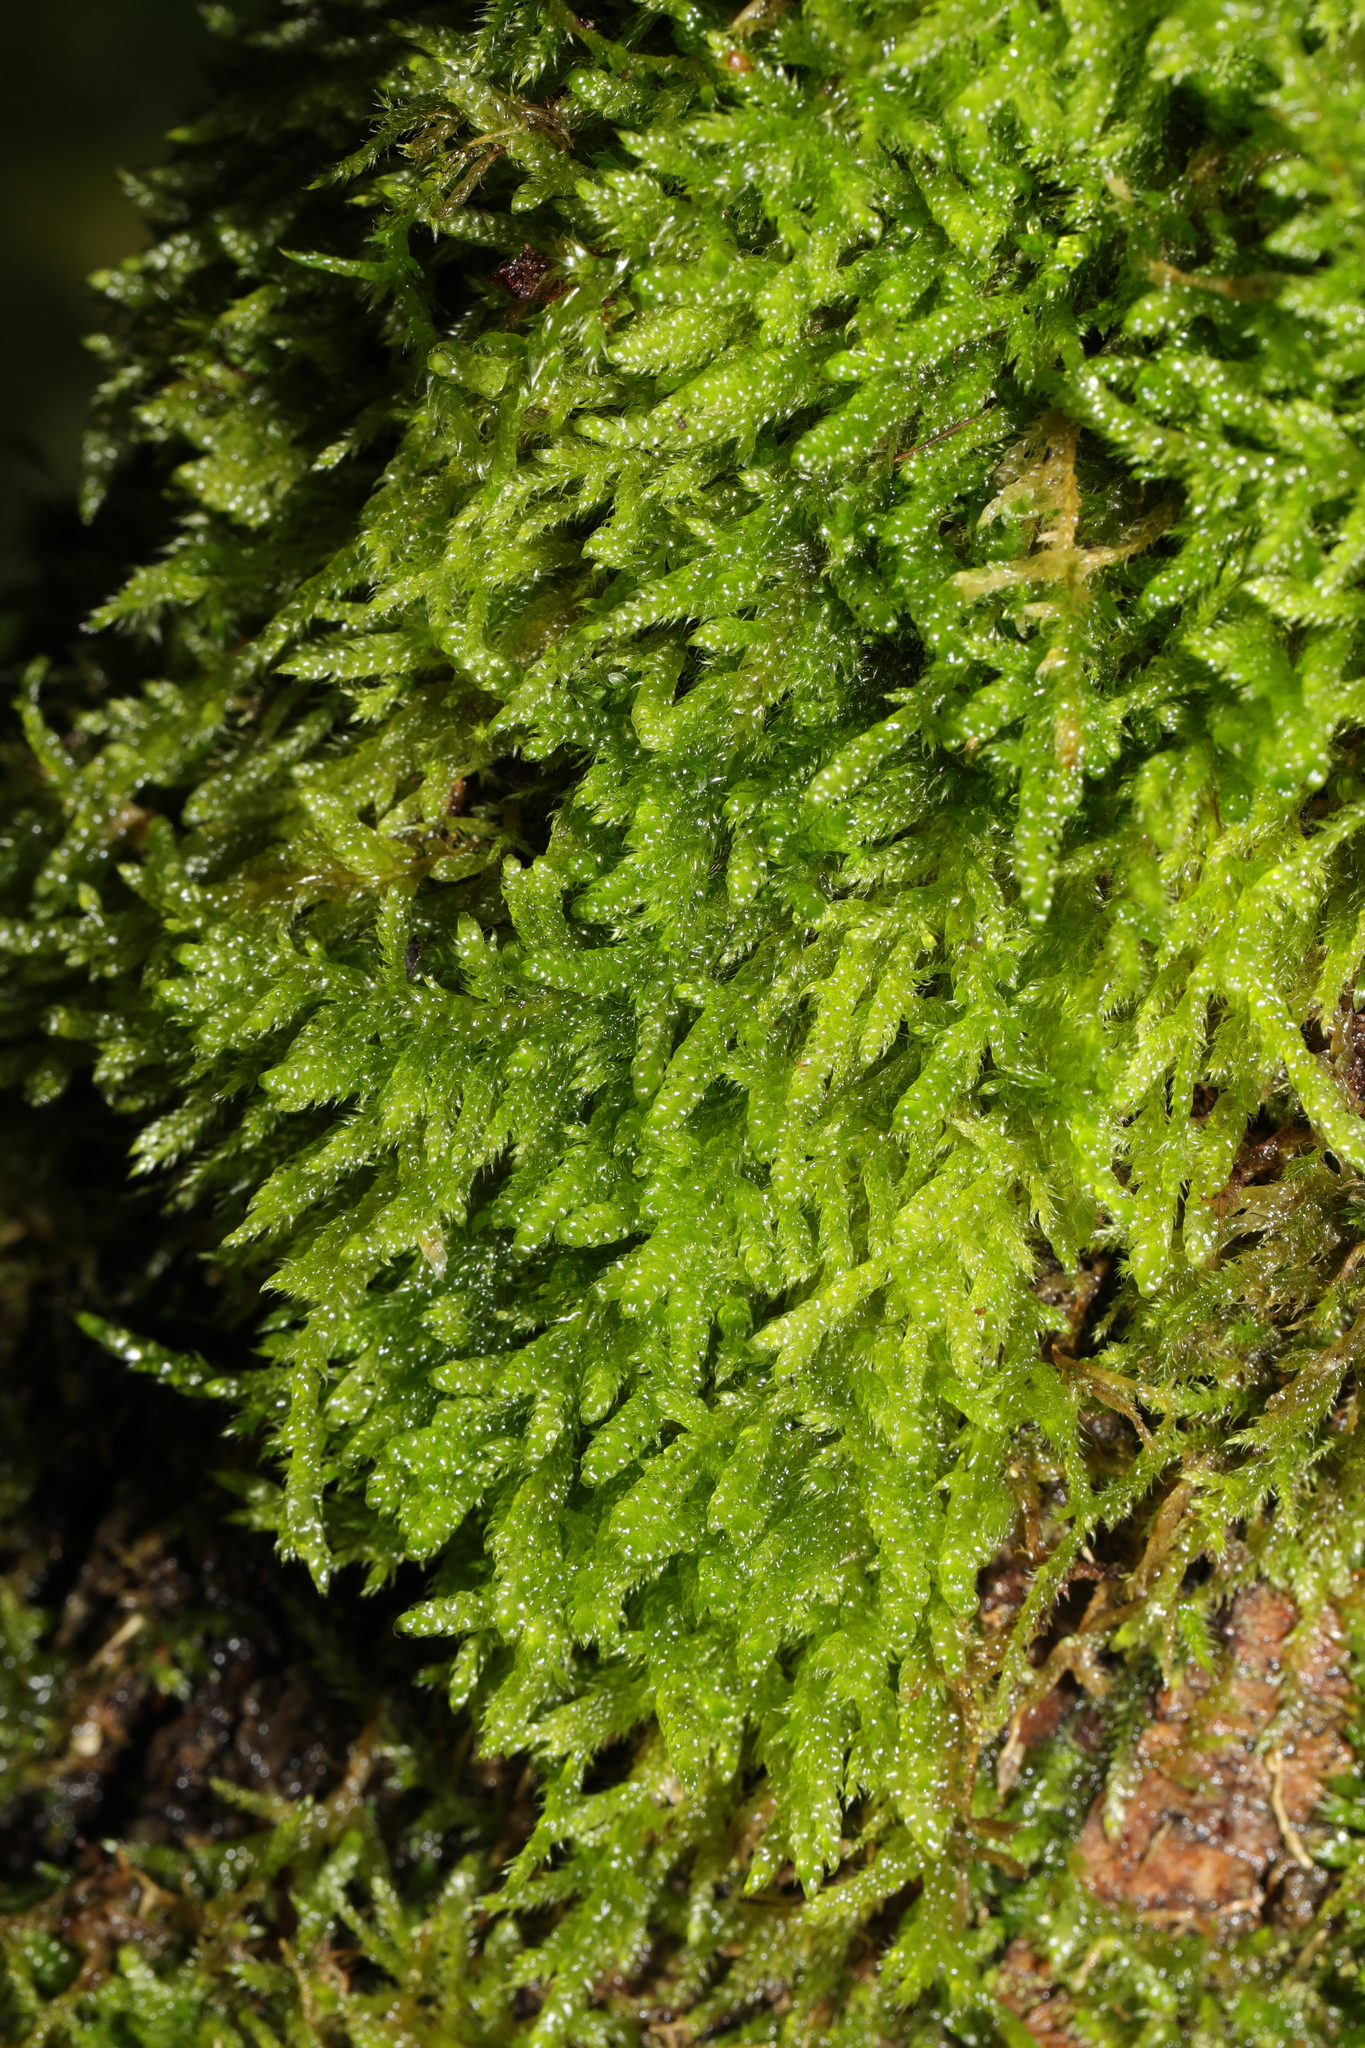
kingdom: Plantae
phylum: Bryophyta
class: Bryopsida
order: Hypnales
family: Hypnaceae
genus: Hypnum
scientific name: Hypnum cupressiforme
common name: Cypress-leaved plait-moss
